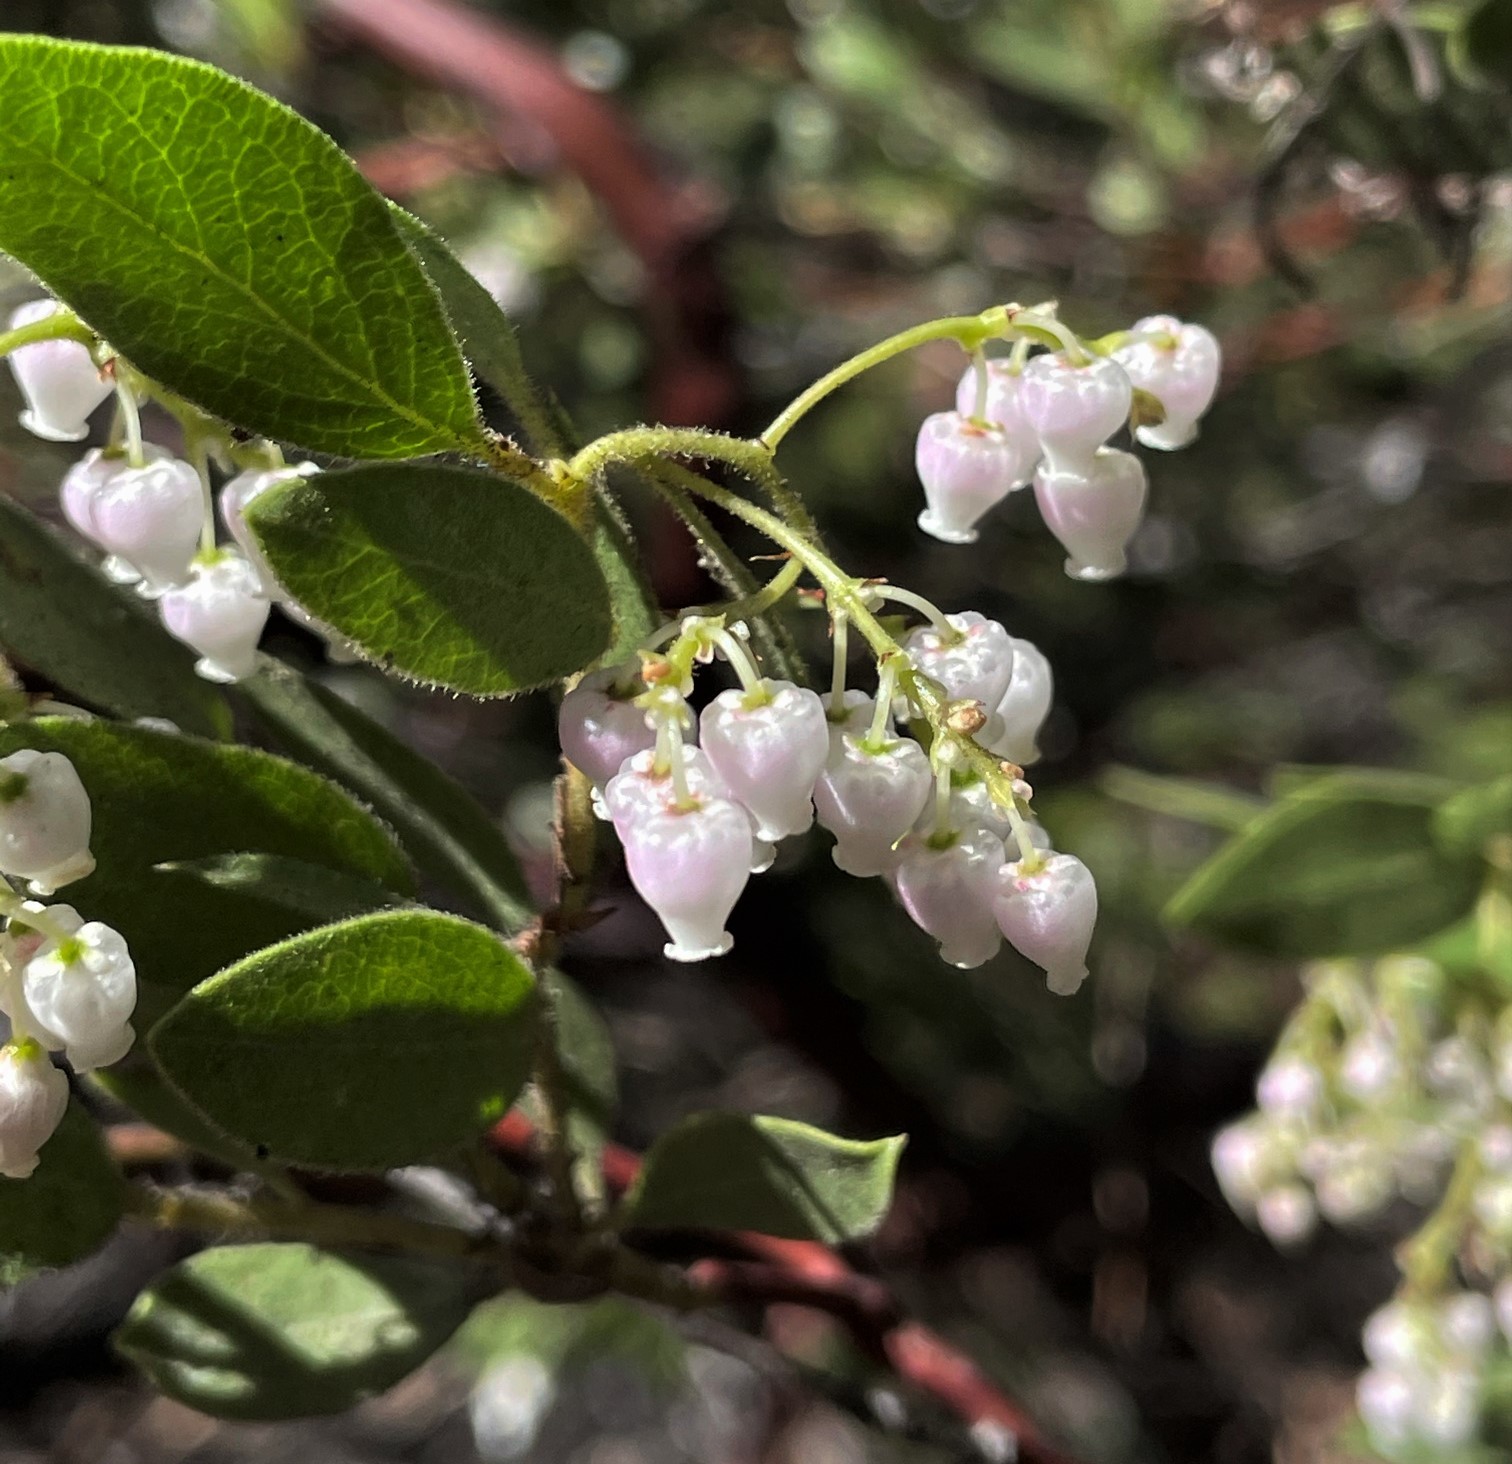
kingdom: Plantae
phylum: Tracheophyta
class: Magnoliopsida
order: Ericales
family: Ericaceae
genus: Arctostaphylos
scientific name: Arctostaphylos hispidula
